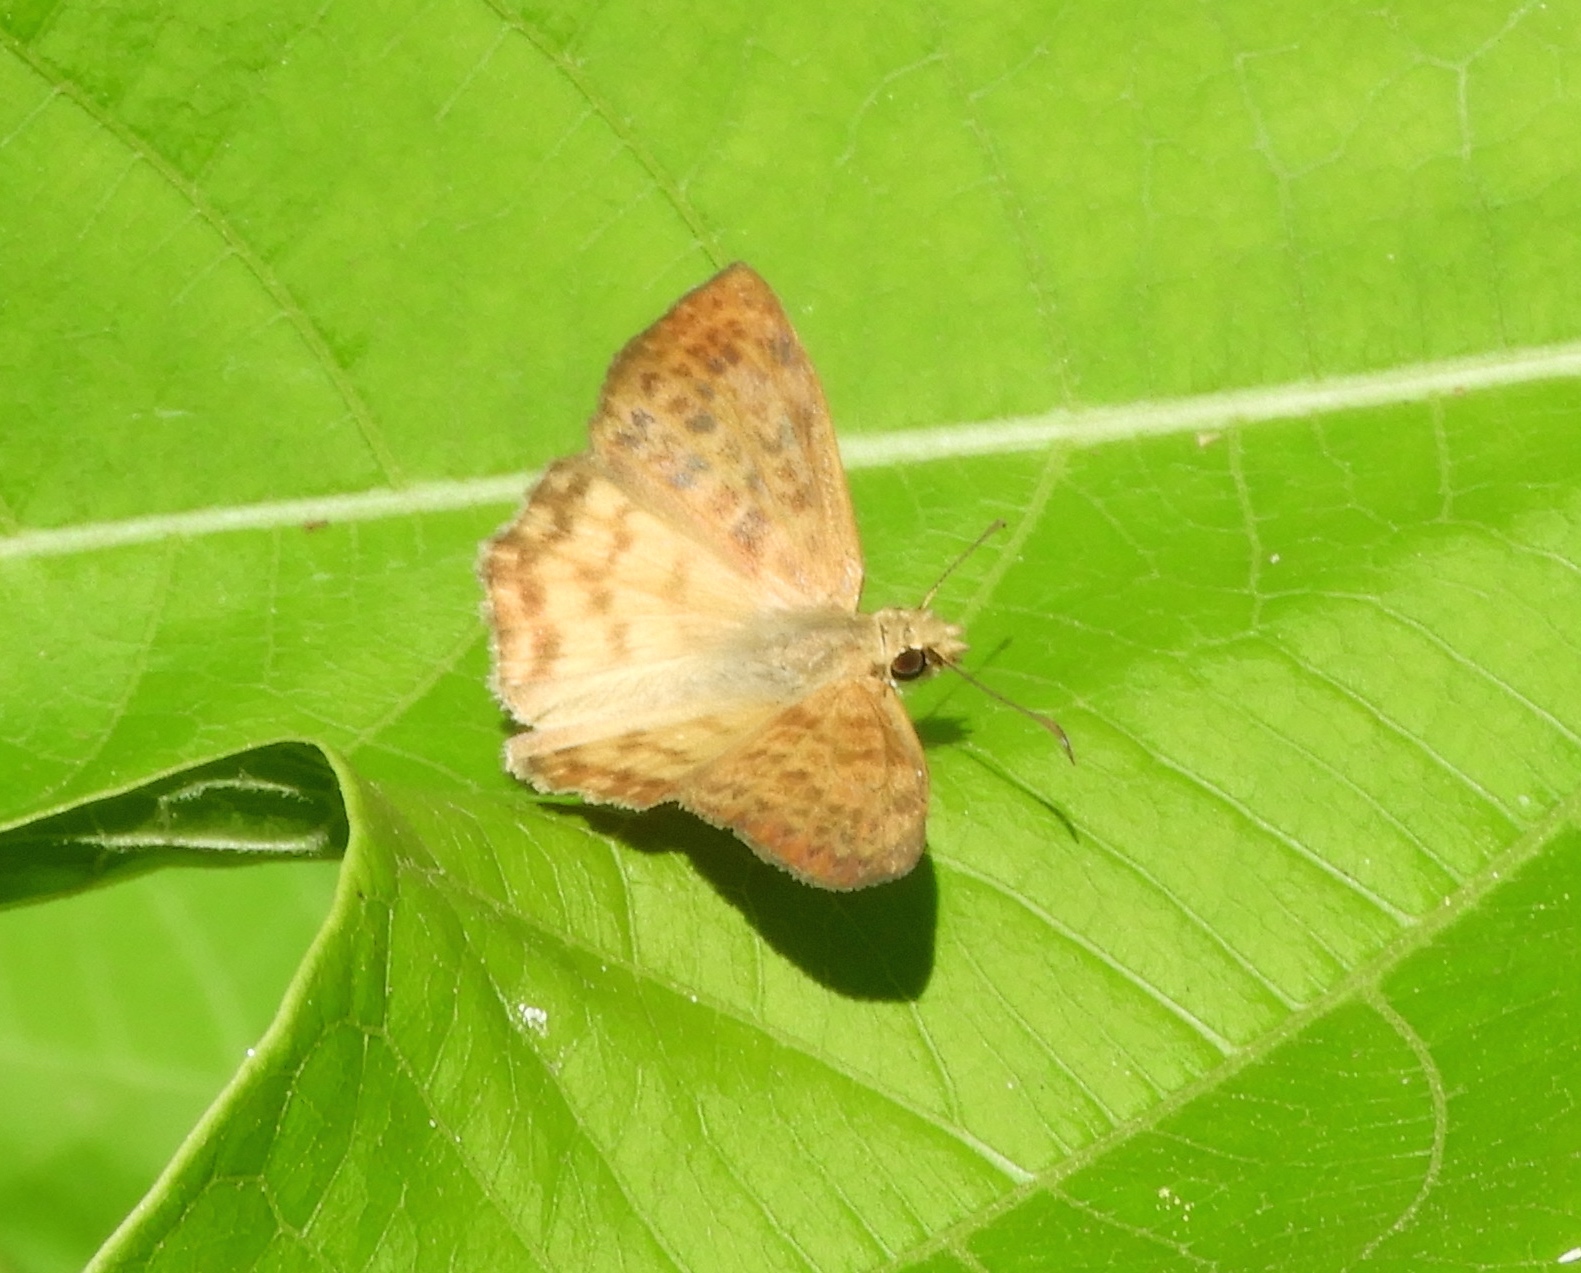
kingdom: Animalia
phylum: Arthropoda
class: Insecta
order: Lepidoptera
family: Hesperiidae
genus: Timochares
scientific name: Timochares ruptifasciata
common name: Brown-banded skipper
